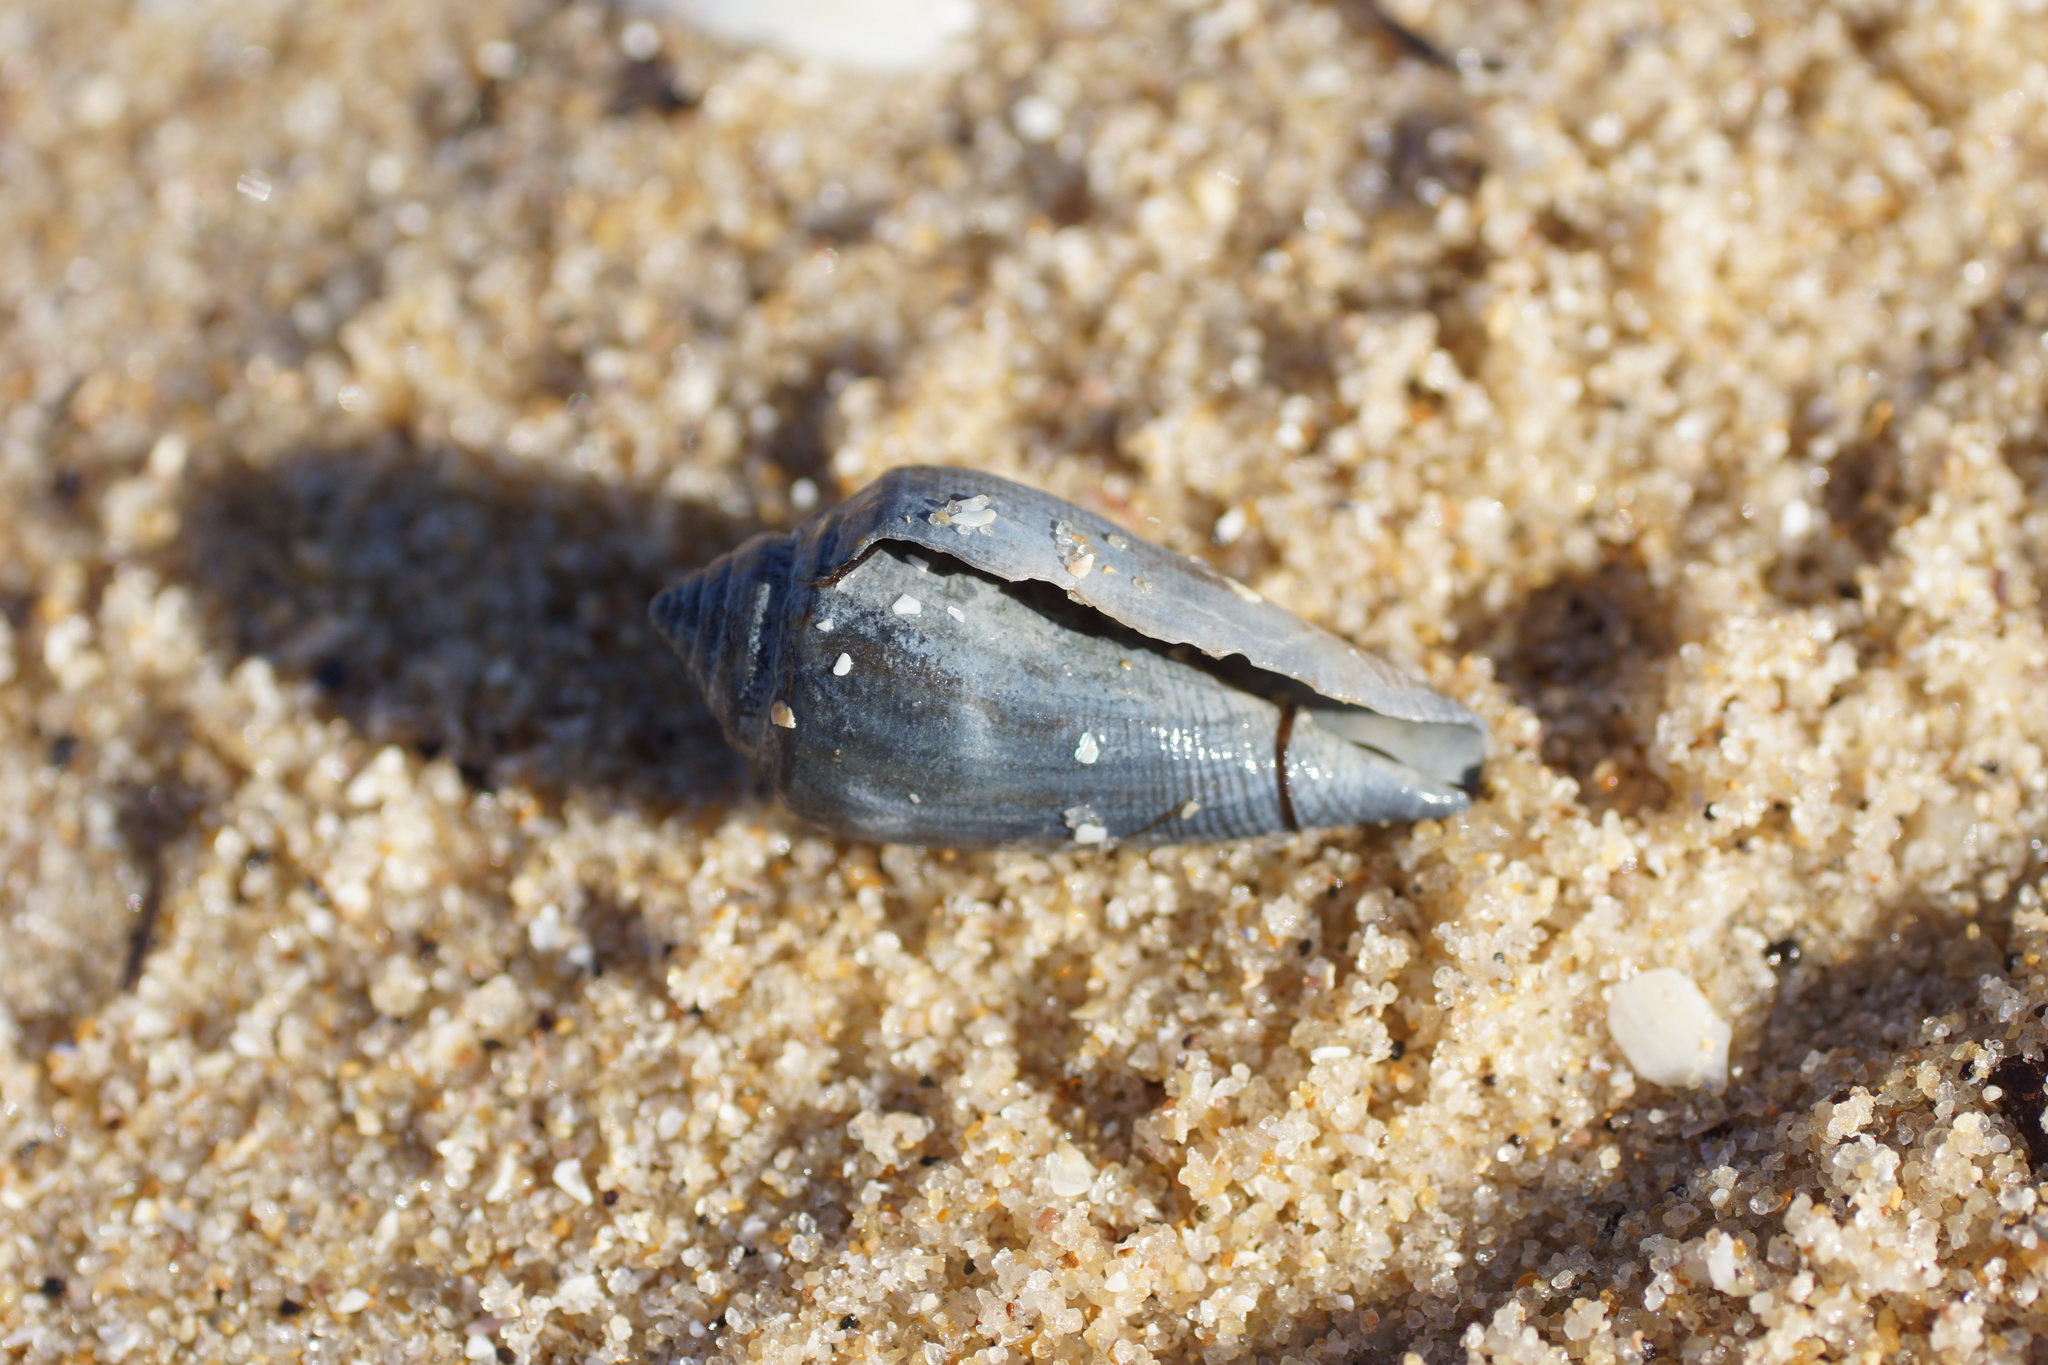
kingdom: Animalia
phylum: Mollusca
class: Gastropoda
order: Neogastropoda
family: Conidae
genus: Conus
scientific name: Conus anemone
